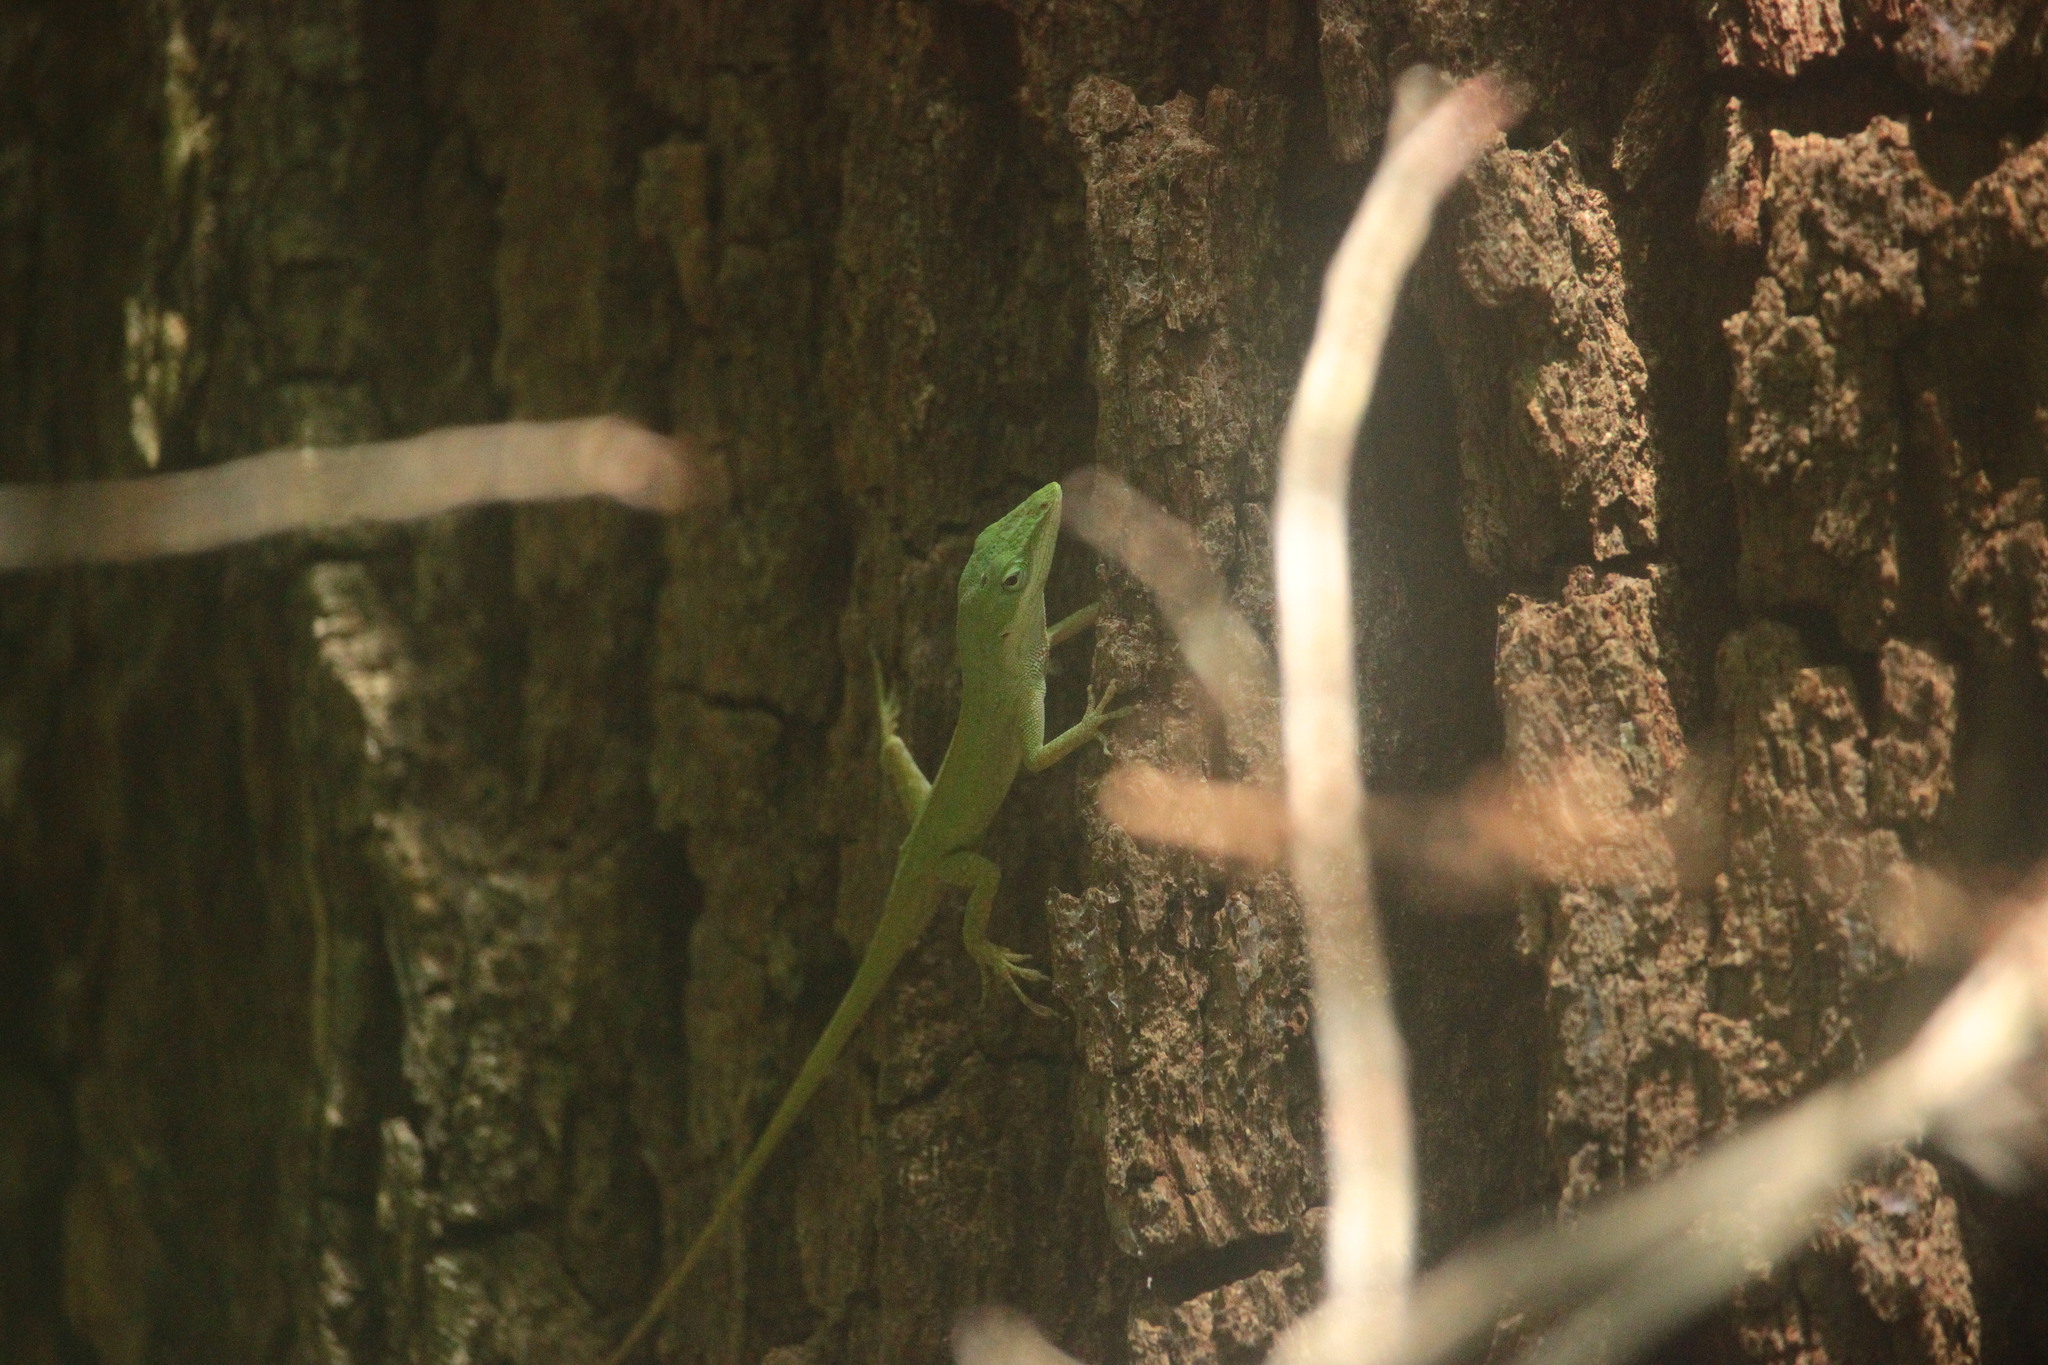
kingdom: Animalia
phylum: Chordata
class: Squamata
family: Dactyloidae
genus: Anolis
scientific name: Anolis carolinensis
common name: Green anole
